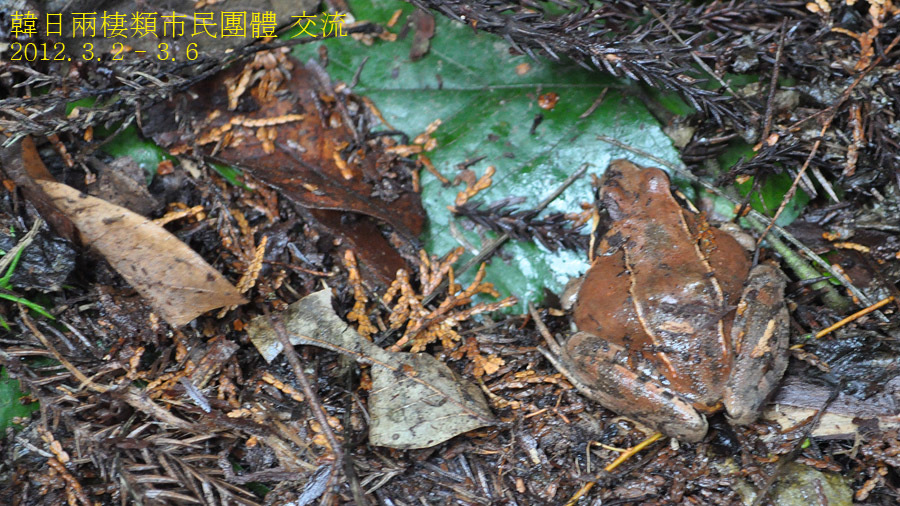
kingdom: Animalia
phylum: Chordata
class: Amphibia
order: Anura
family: Ranidae
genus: Rana
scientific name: Rana japonica
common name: Japanese brown frog
